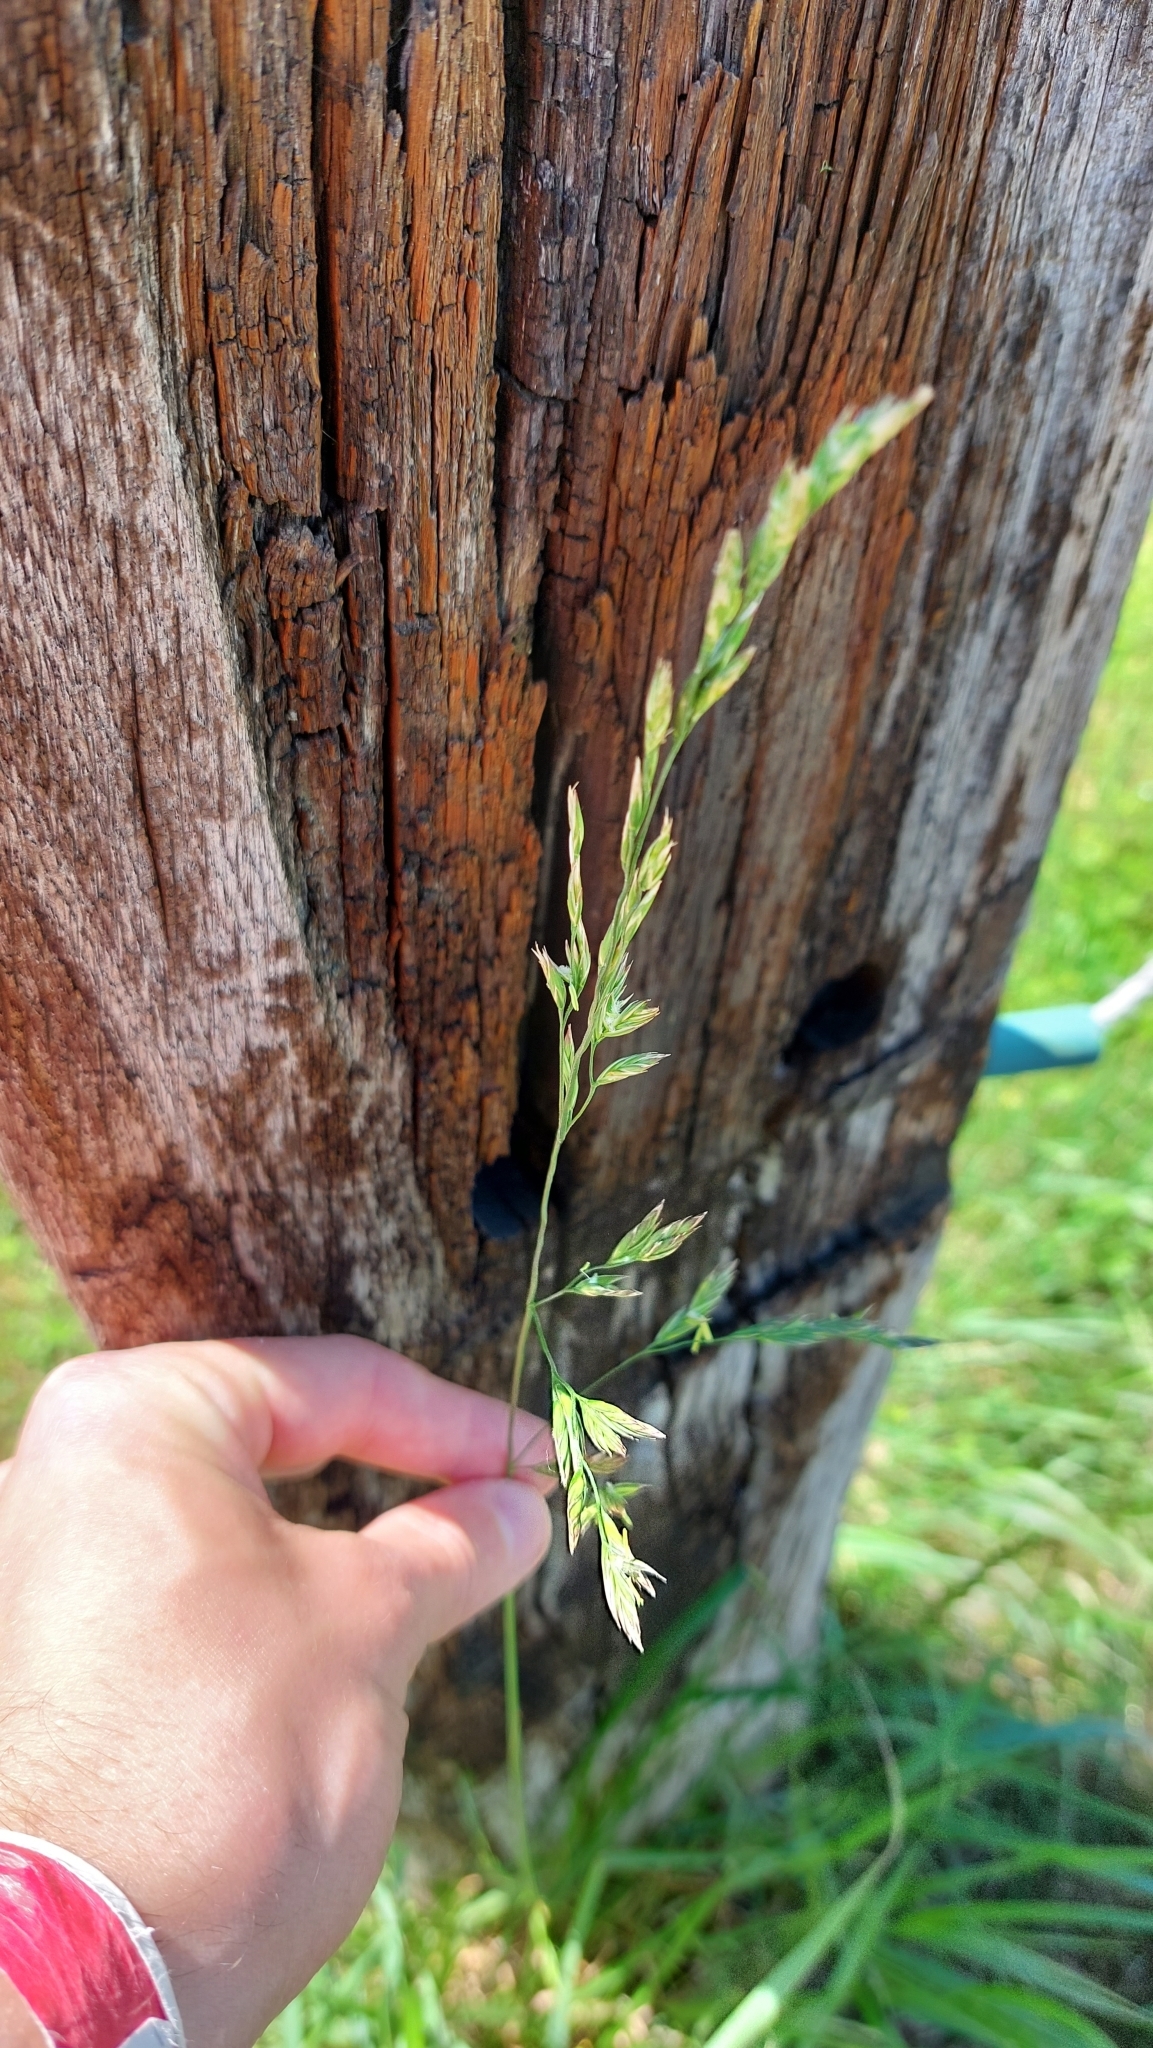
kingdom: Plantae
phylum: Tracheophyta
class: Liliopsida
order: Poales
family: Poaceae
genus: Lolium
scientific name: Lolium arundinaceum
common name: Reed fescue
